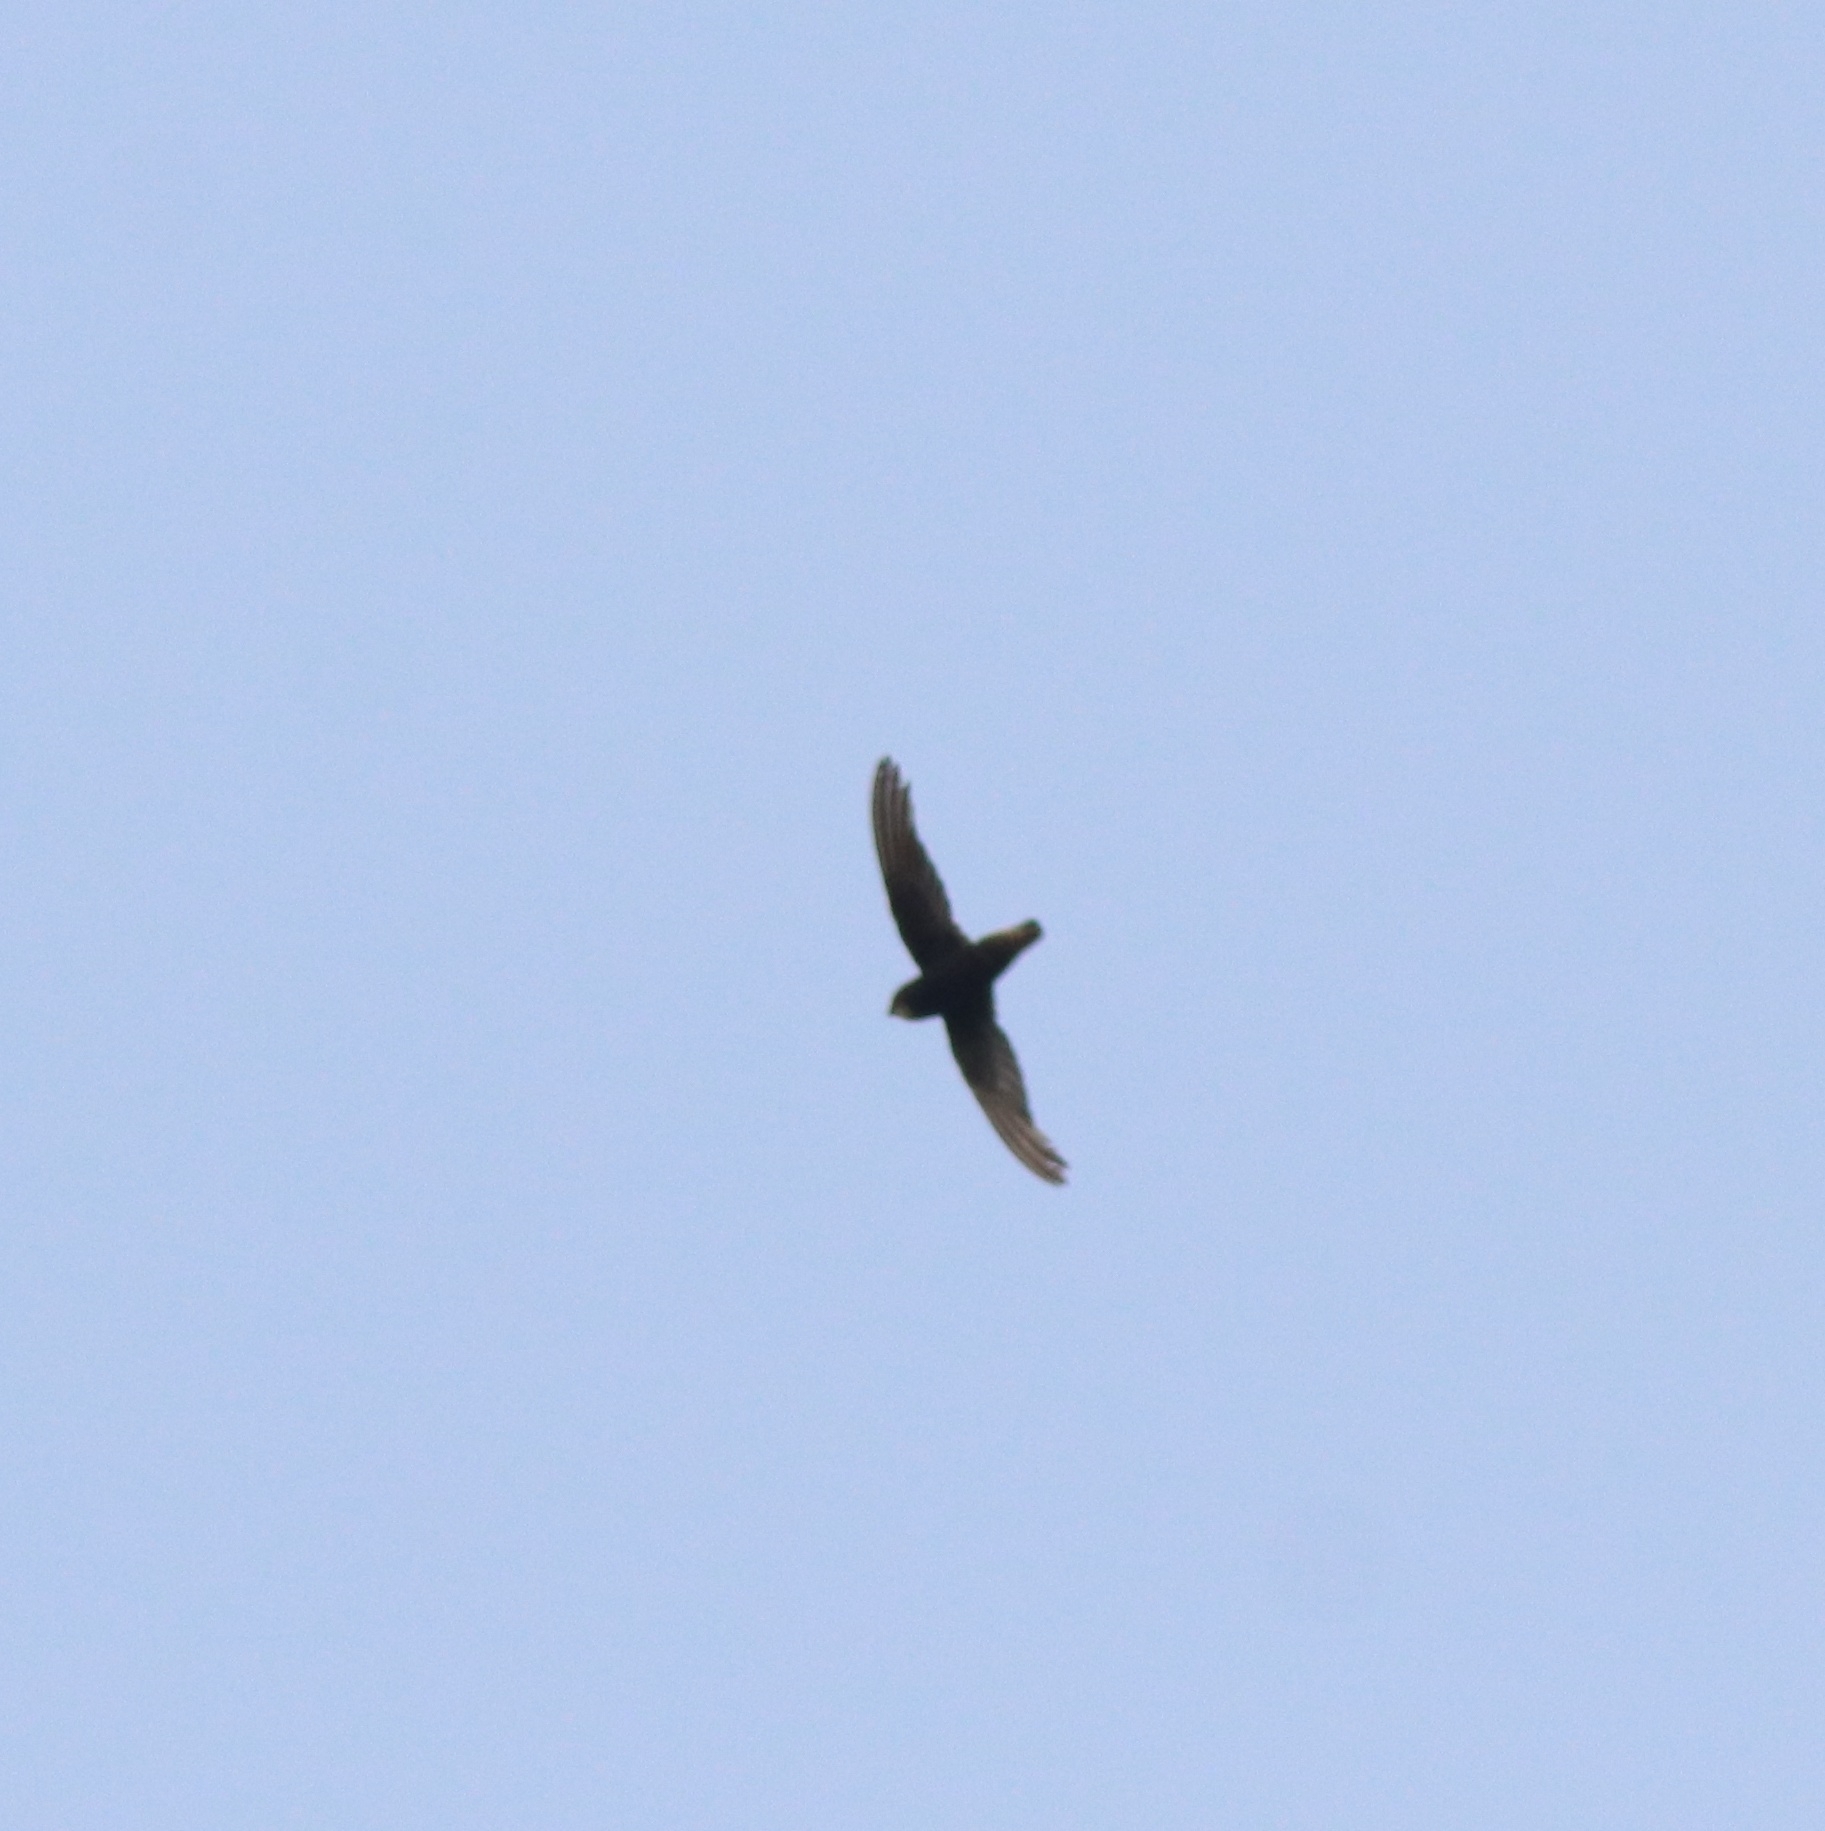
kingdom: Animalia
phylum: Chordata
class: Aves
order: Apodiformes
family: Apodidae
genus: Apus
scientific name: Apus affinis
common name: Little swift
